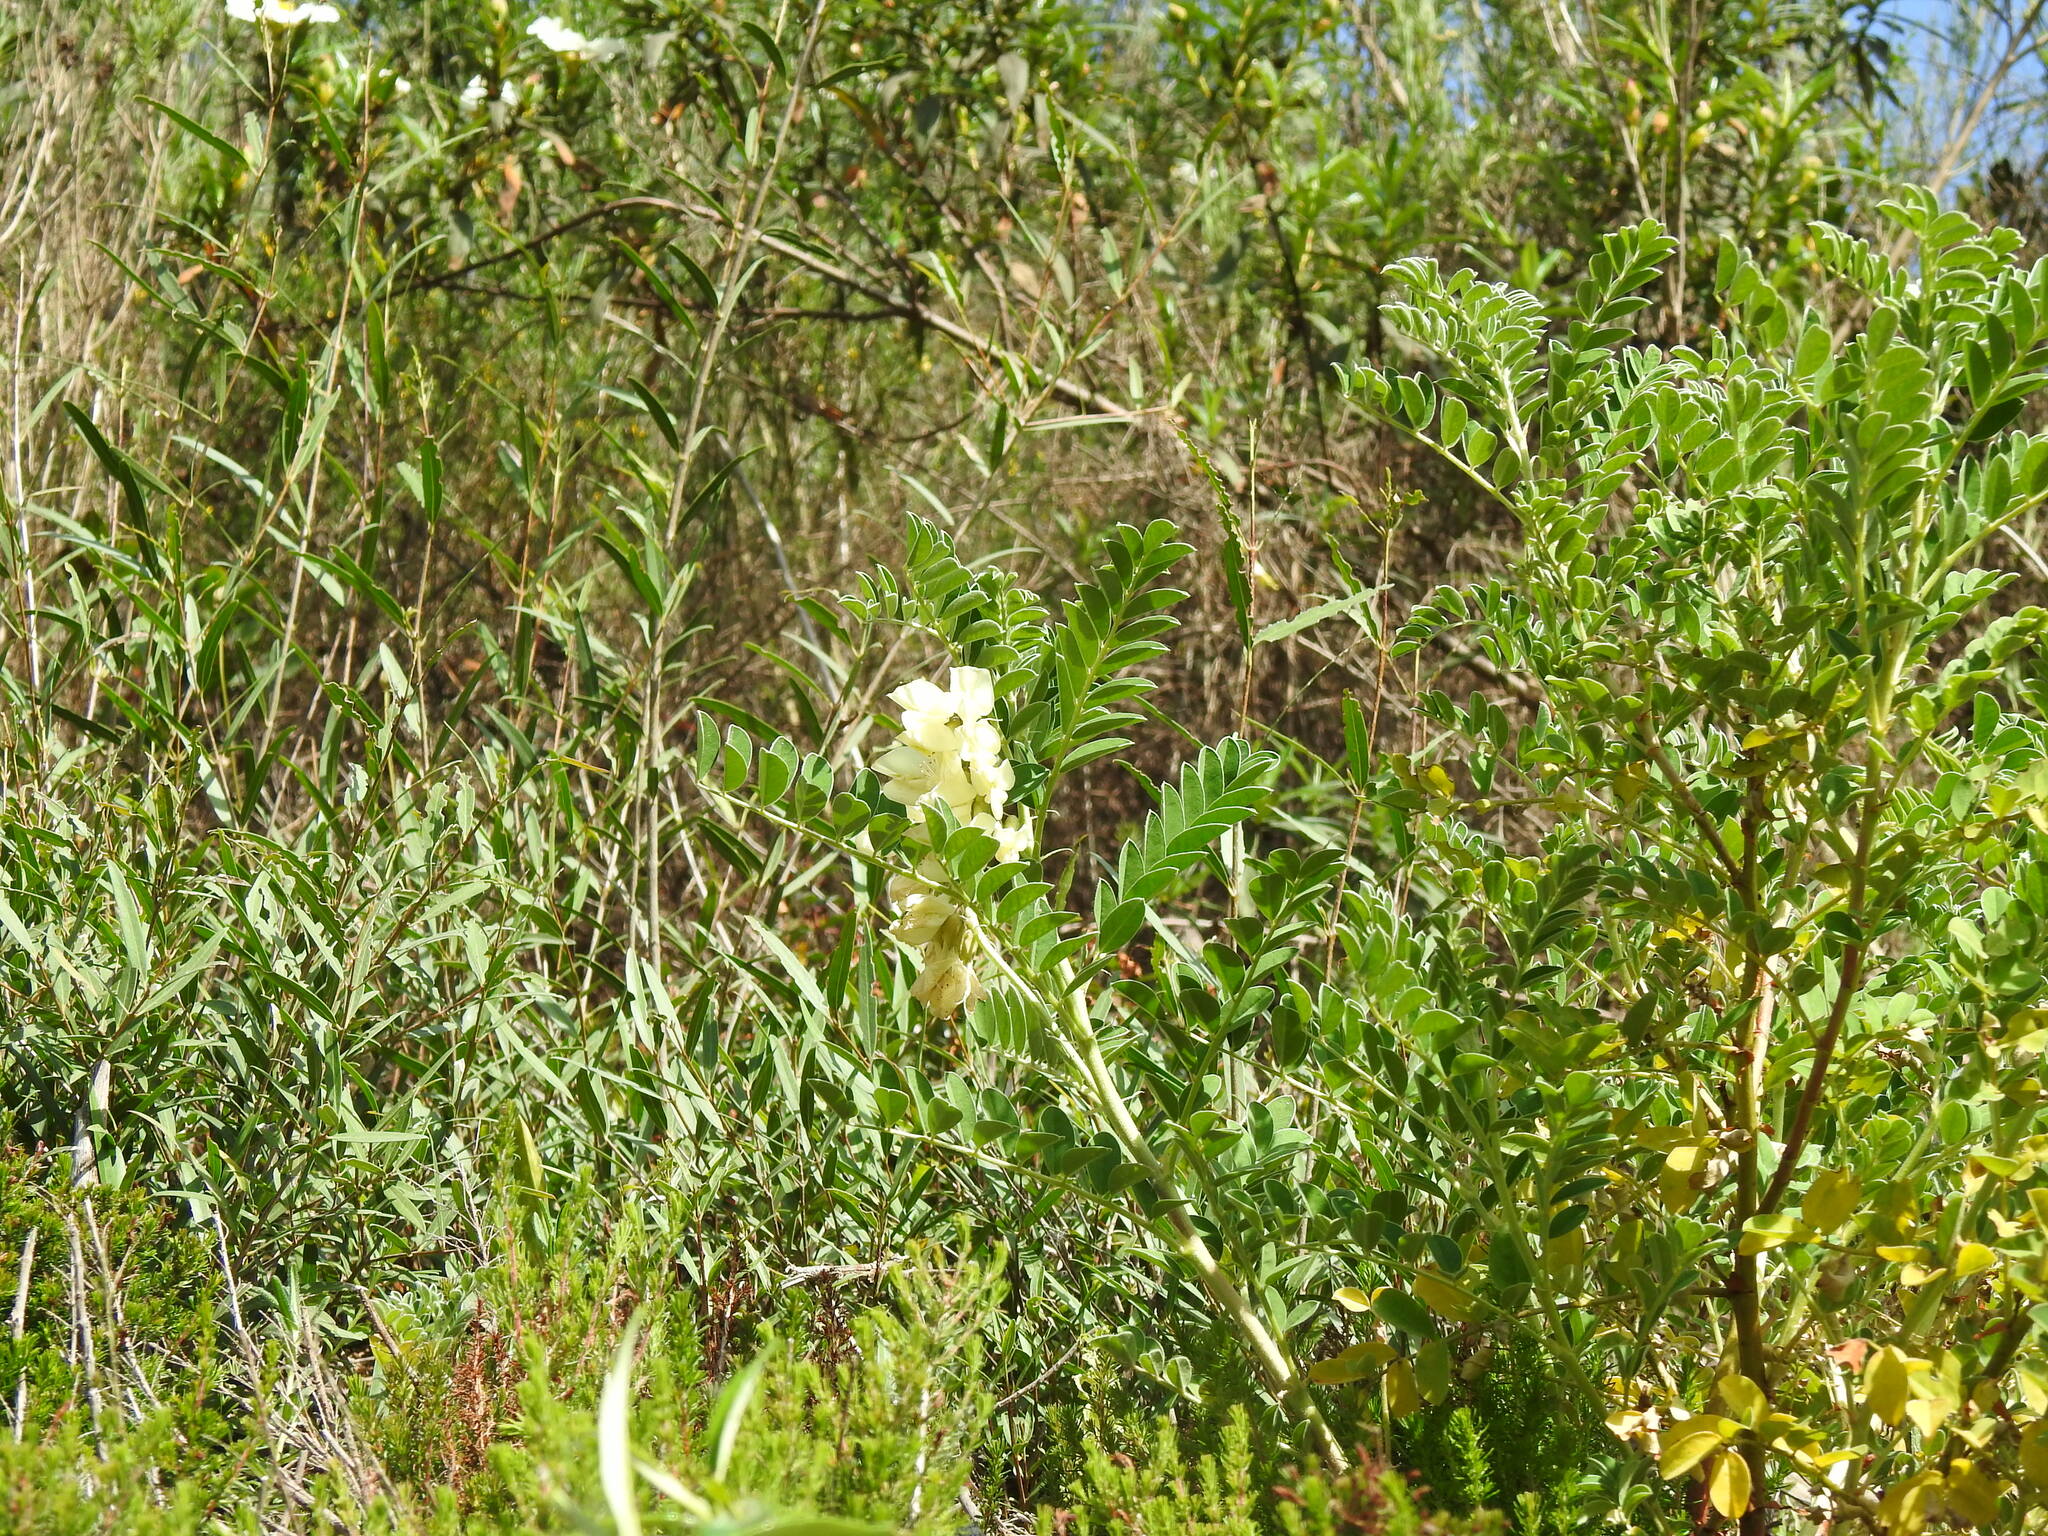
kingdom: Plantae
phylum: Tracheophyta
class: Magnoliopsida
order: Fabales
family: Fabaceae
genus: Erophaca
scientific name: Erophaca baetica
